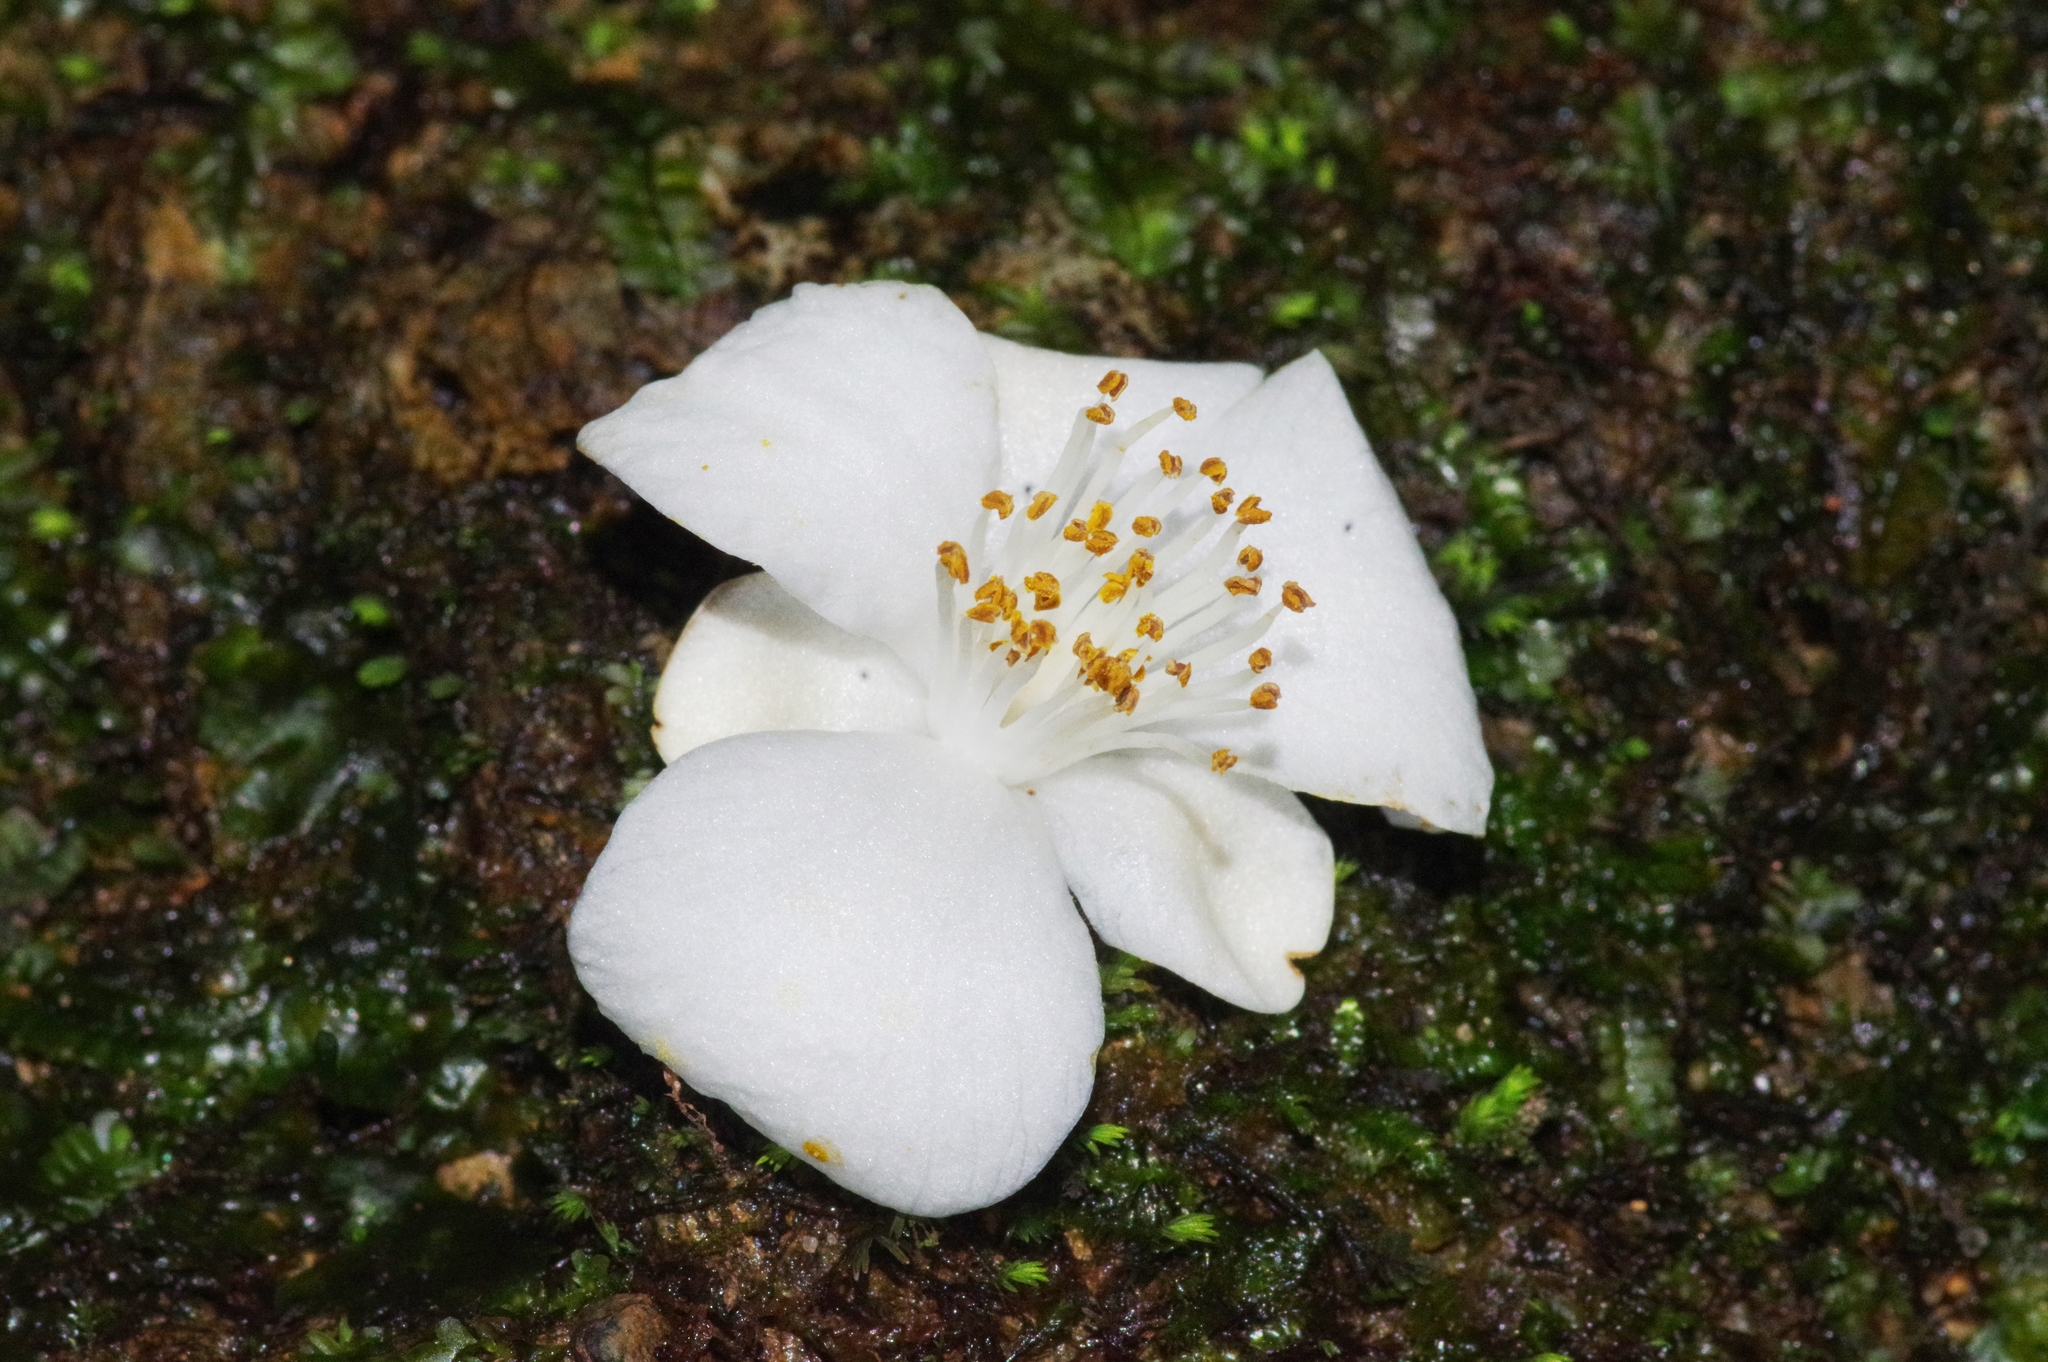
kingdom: Plantae
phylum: Tracheophyta
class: Magnoliopsida
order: Ericales
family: Theaceae
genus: Camellia
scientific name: Camellia lutchuensis
